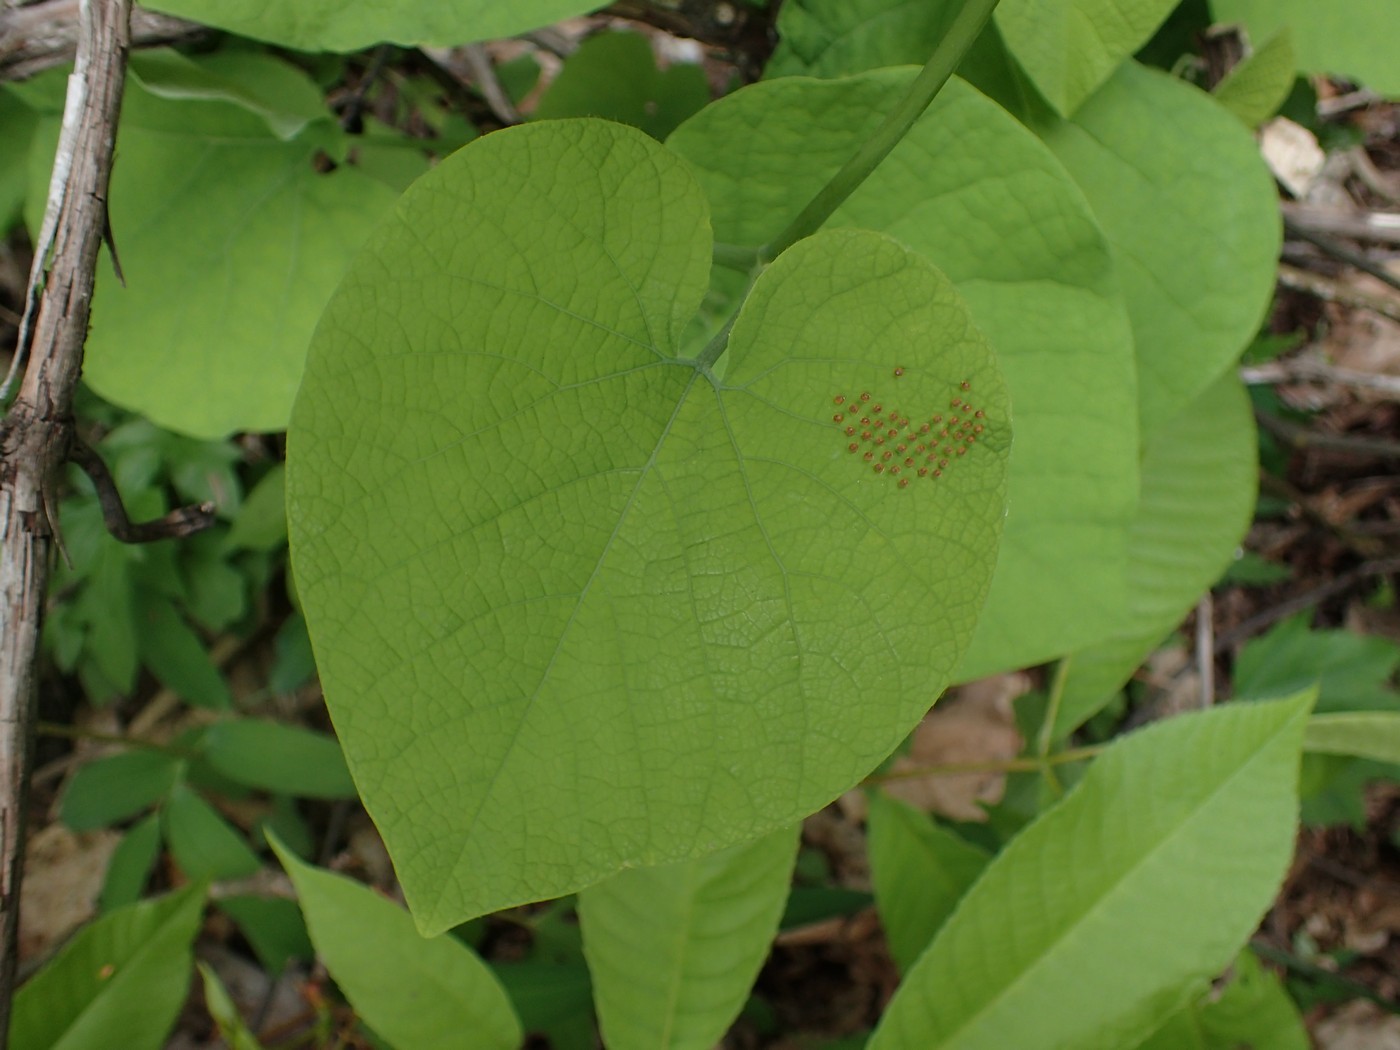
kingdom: Animalia
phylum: Arthropoda
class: Insecta
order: Lepidoptera
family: Papilionidae
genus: Battus
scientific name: Battus philenor
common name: Pipevine swallowtail
